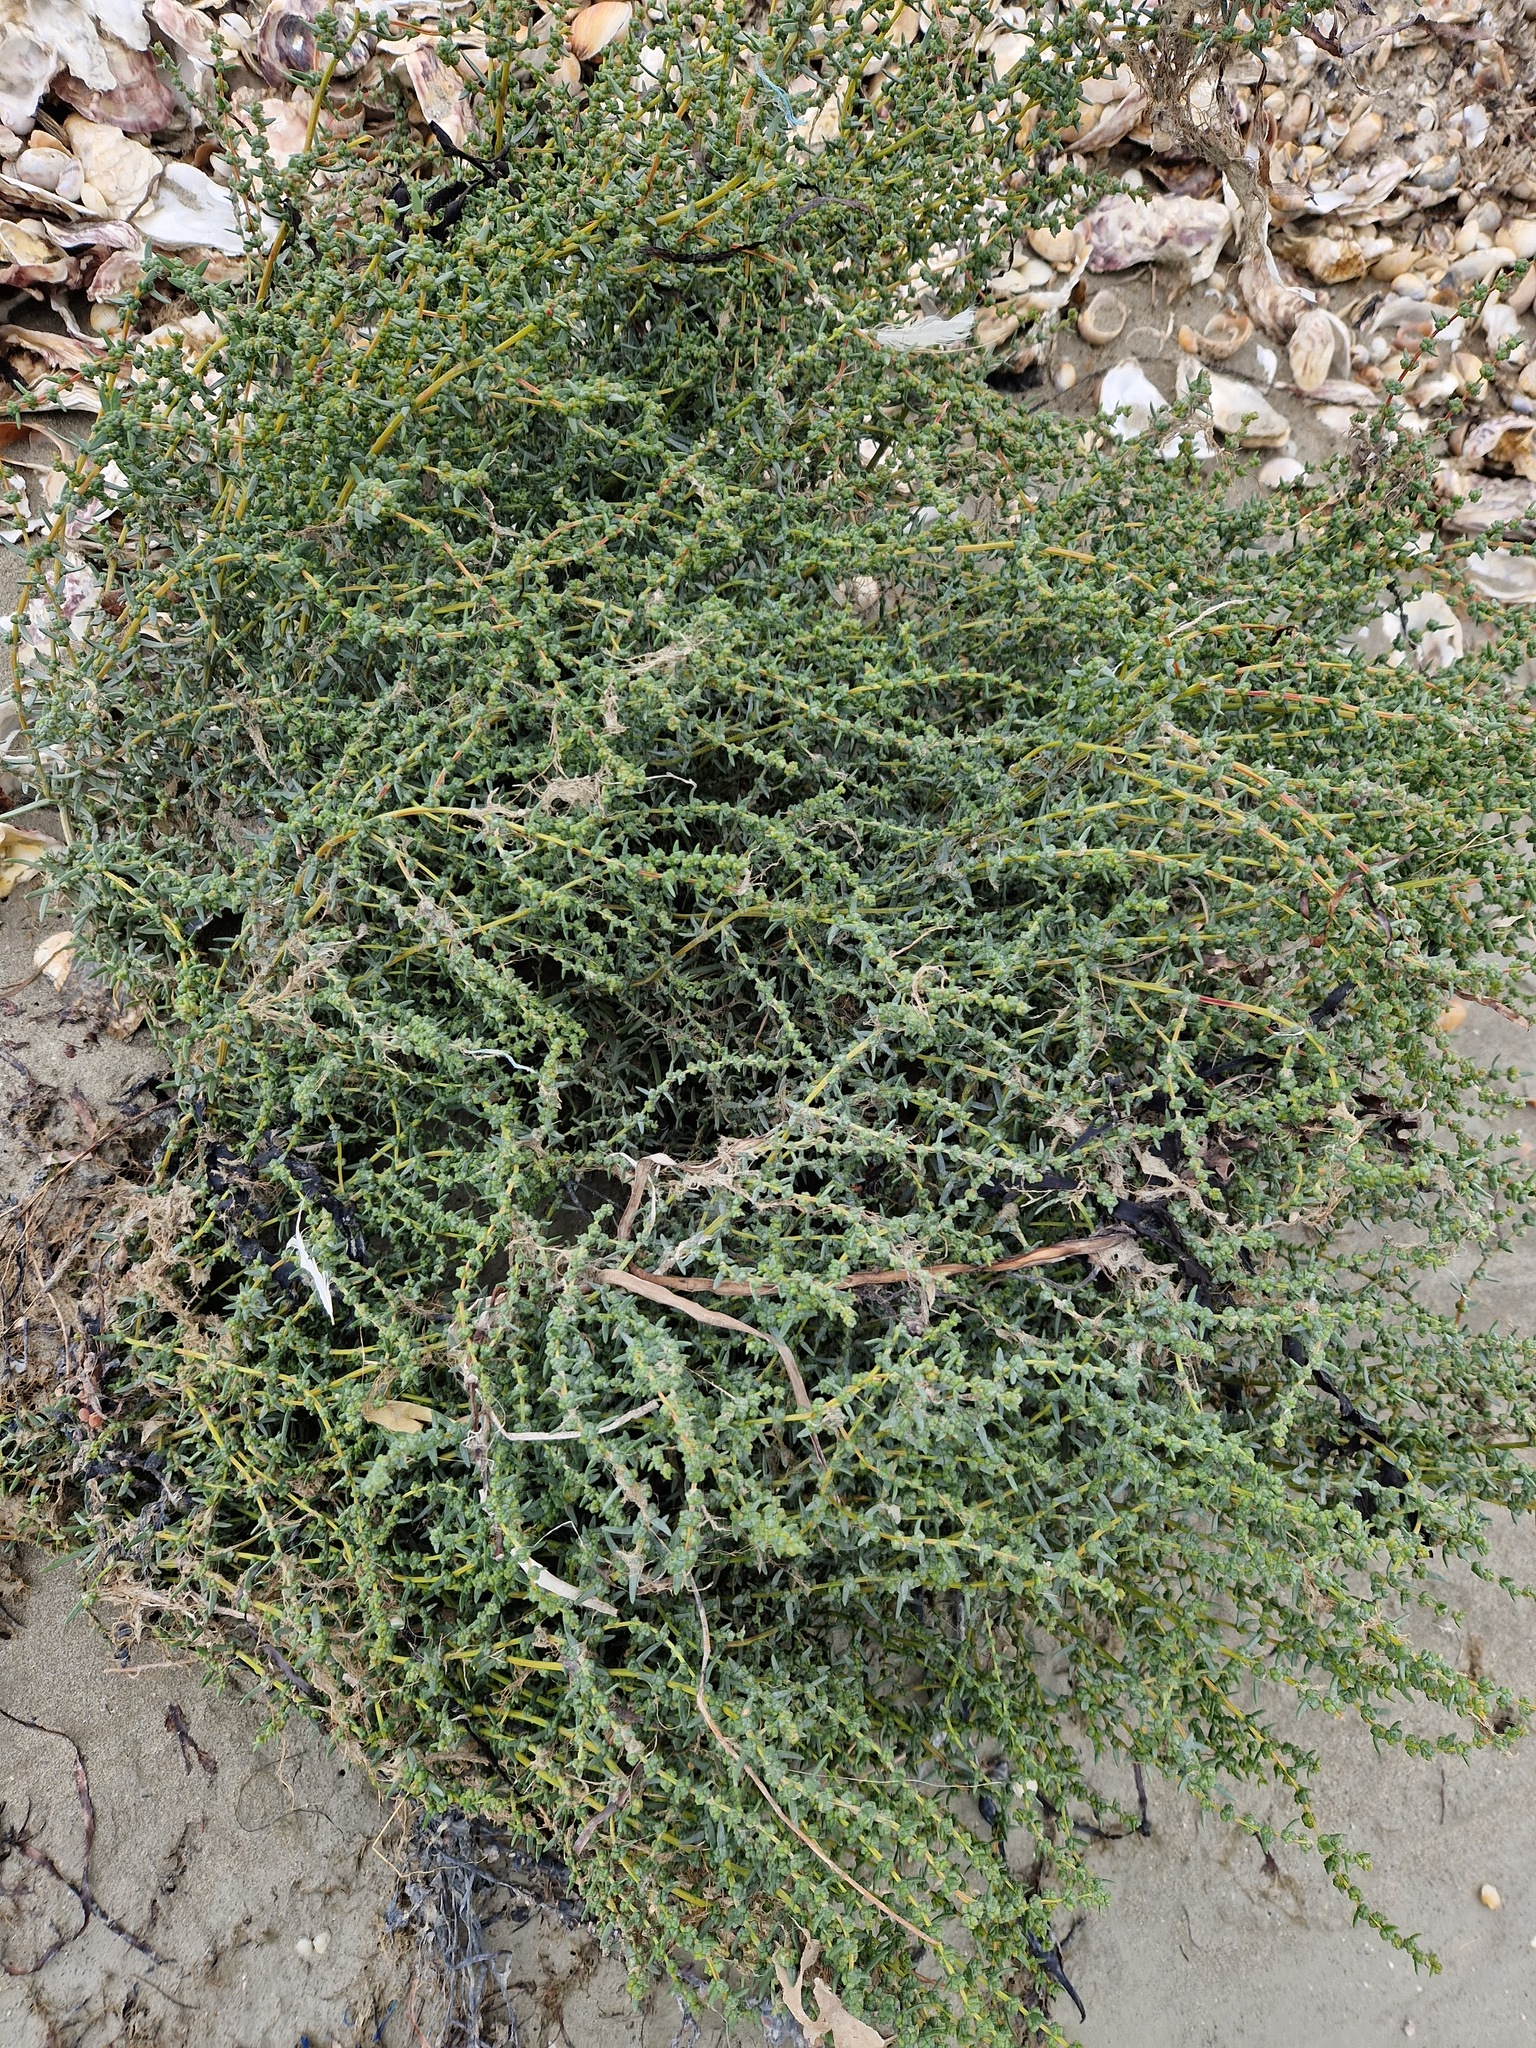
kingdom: Plantae
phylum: Tracheophyta
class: Magnoliopsida
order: Caryophyllales
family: Amaranthaceae
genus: Suaeda
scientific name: Suaeda maritima
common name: Annual sea-blite
